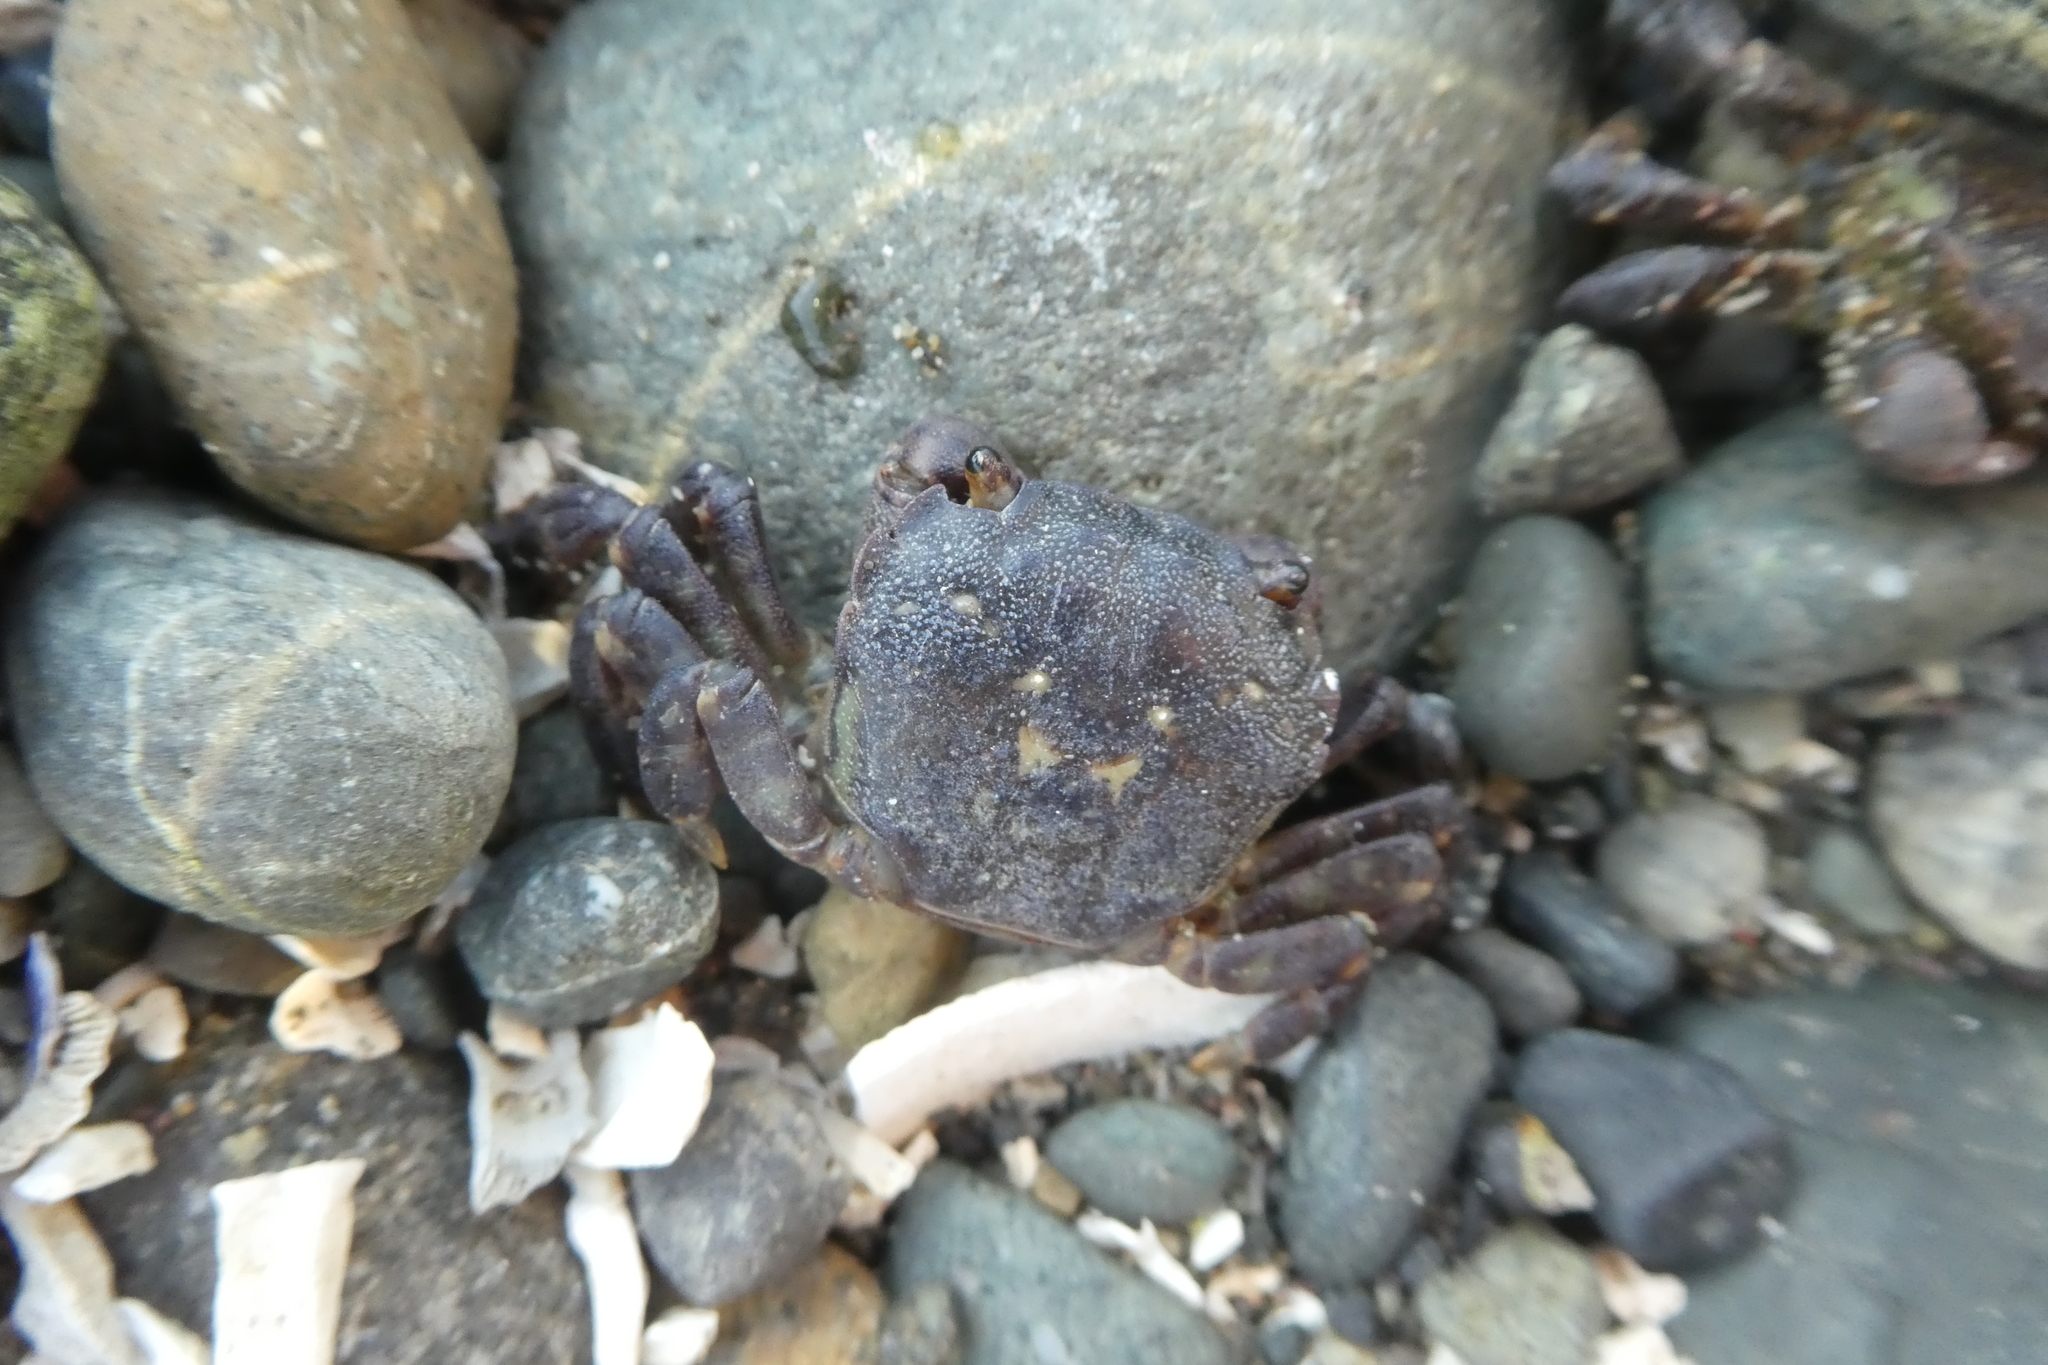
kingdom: Animalia
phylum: Arthropoda
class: Malacostraca
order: Decapoda
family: Varunidae
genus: Hemigrapsus
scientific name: Hemigrapsus nudus
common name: Purple shore crab
